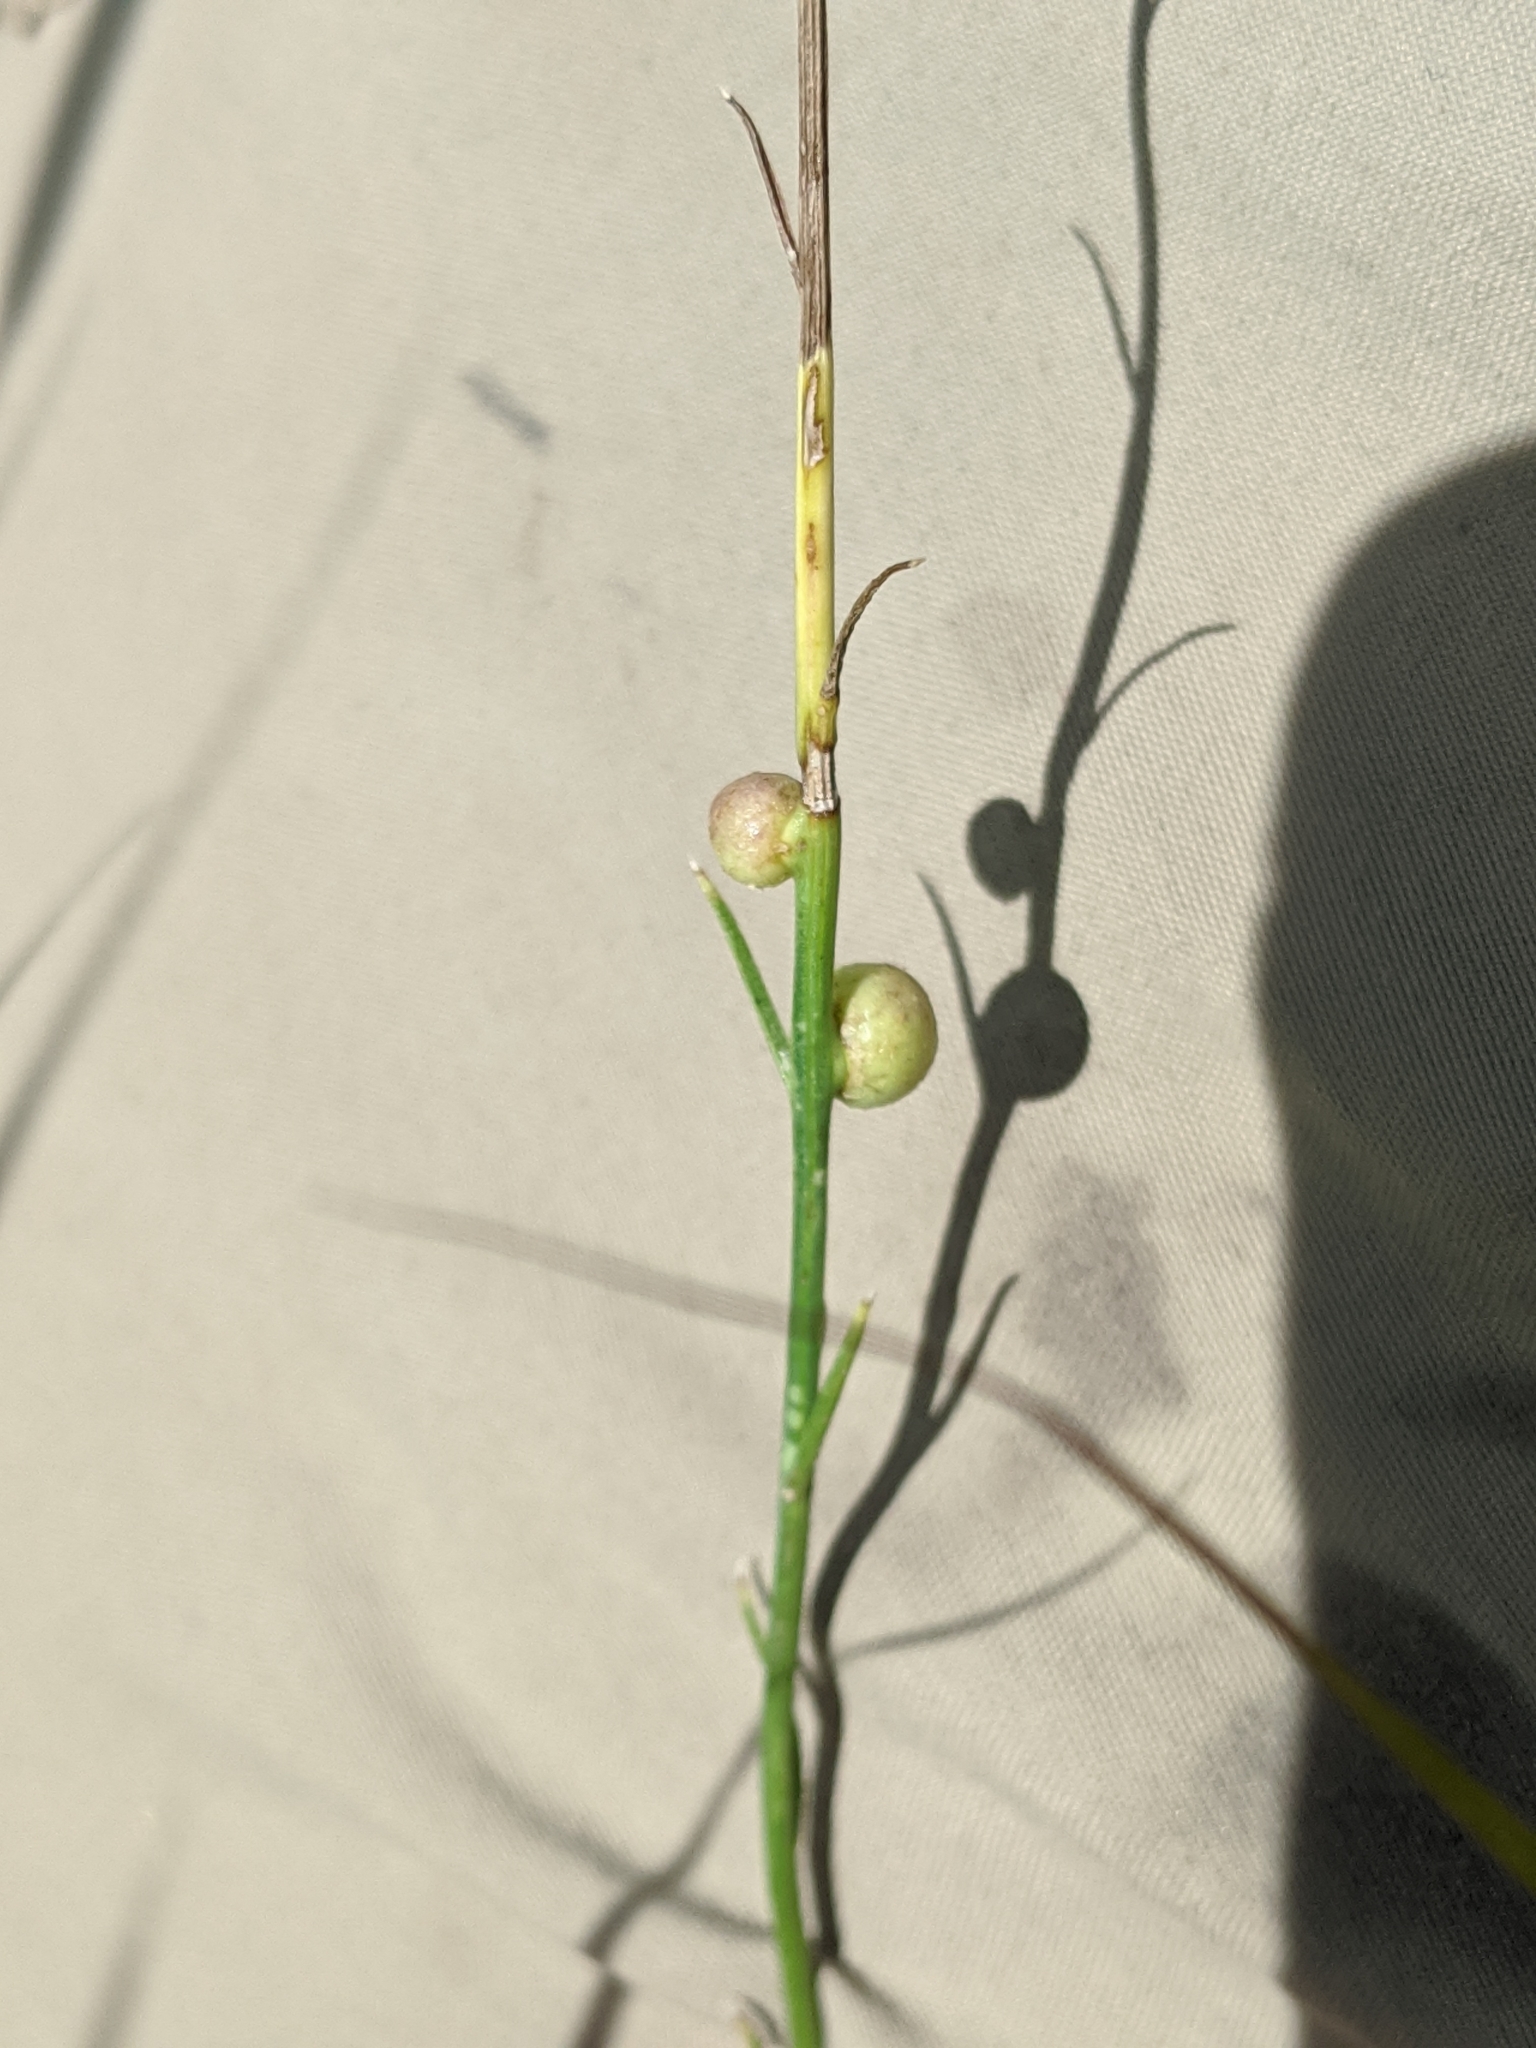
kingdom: Animalia
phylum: Arthropoda
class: Insecta
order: Hymenoptera
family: Cynipidae
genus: Antistrophus
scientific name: Antistrophus
